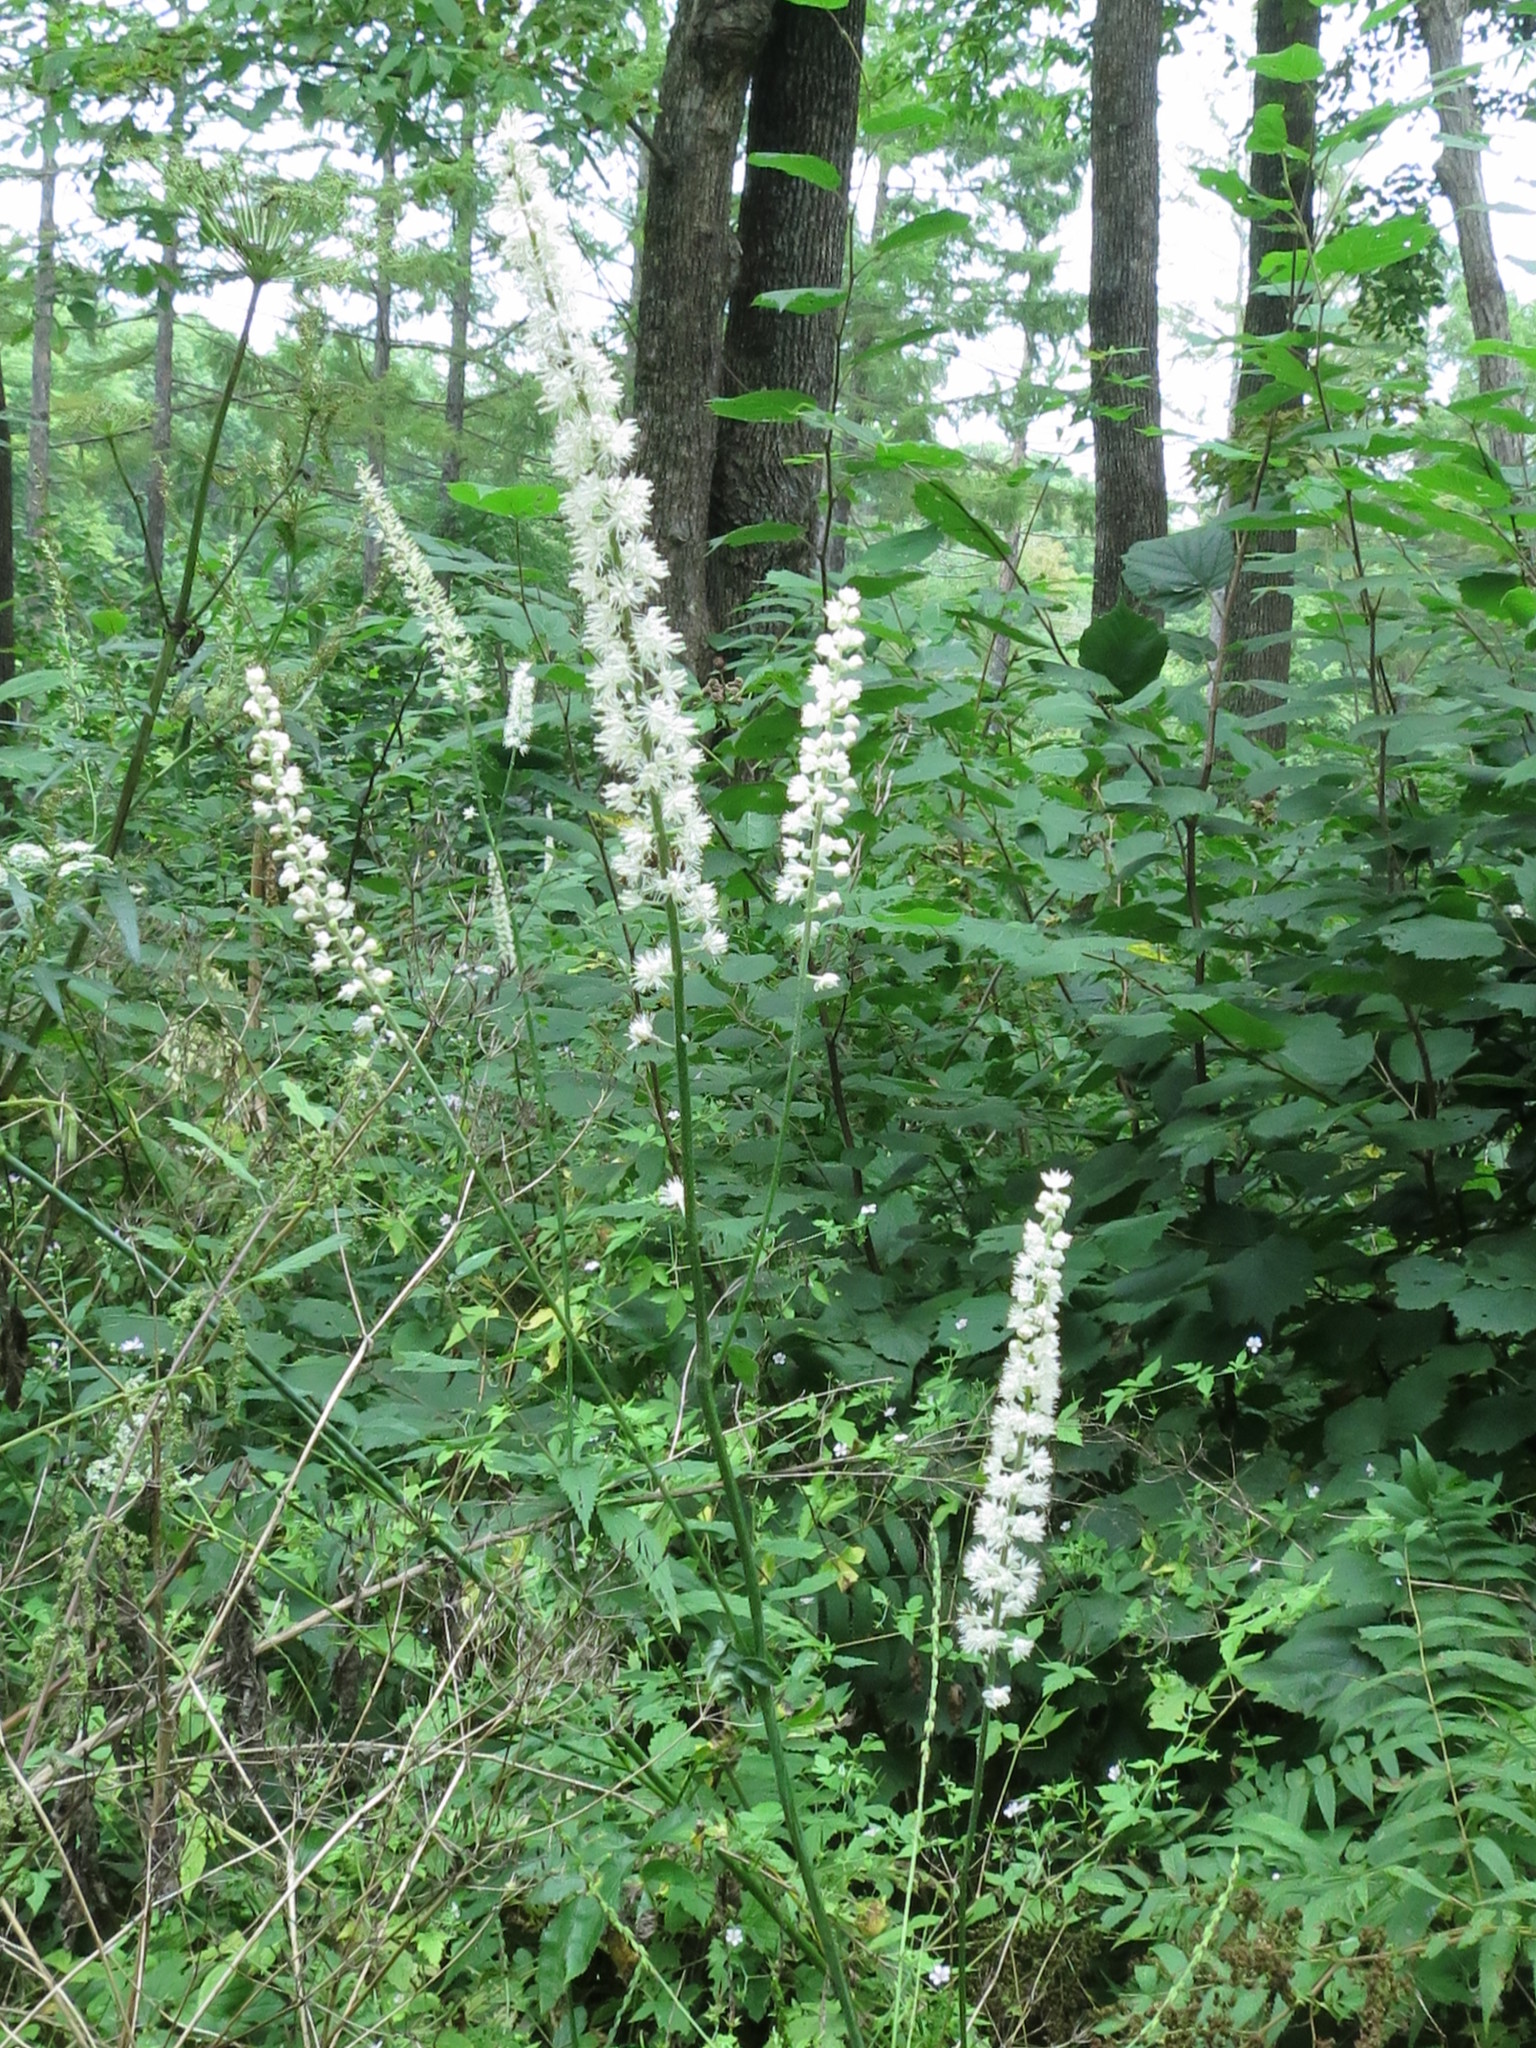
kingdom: Plantae
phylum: Tracheophyta
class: Magnoliopsida
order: Ranunculales
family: Ranunculaceae
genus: Actaea
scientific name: Actaea simplex
